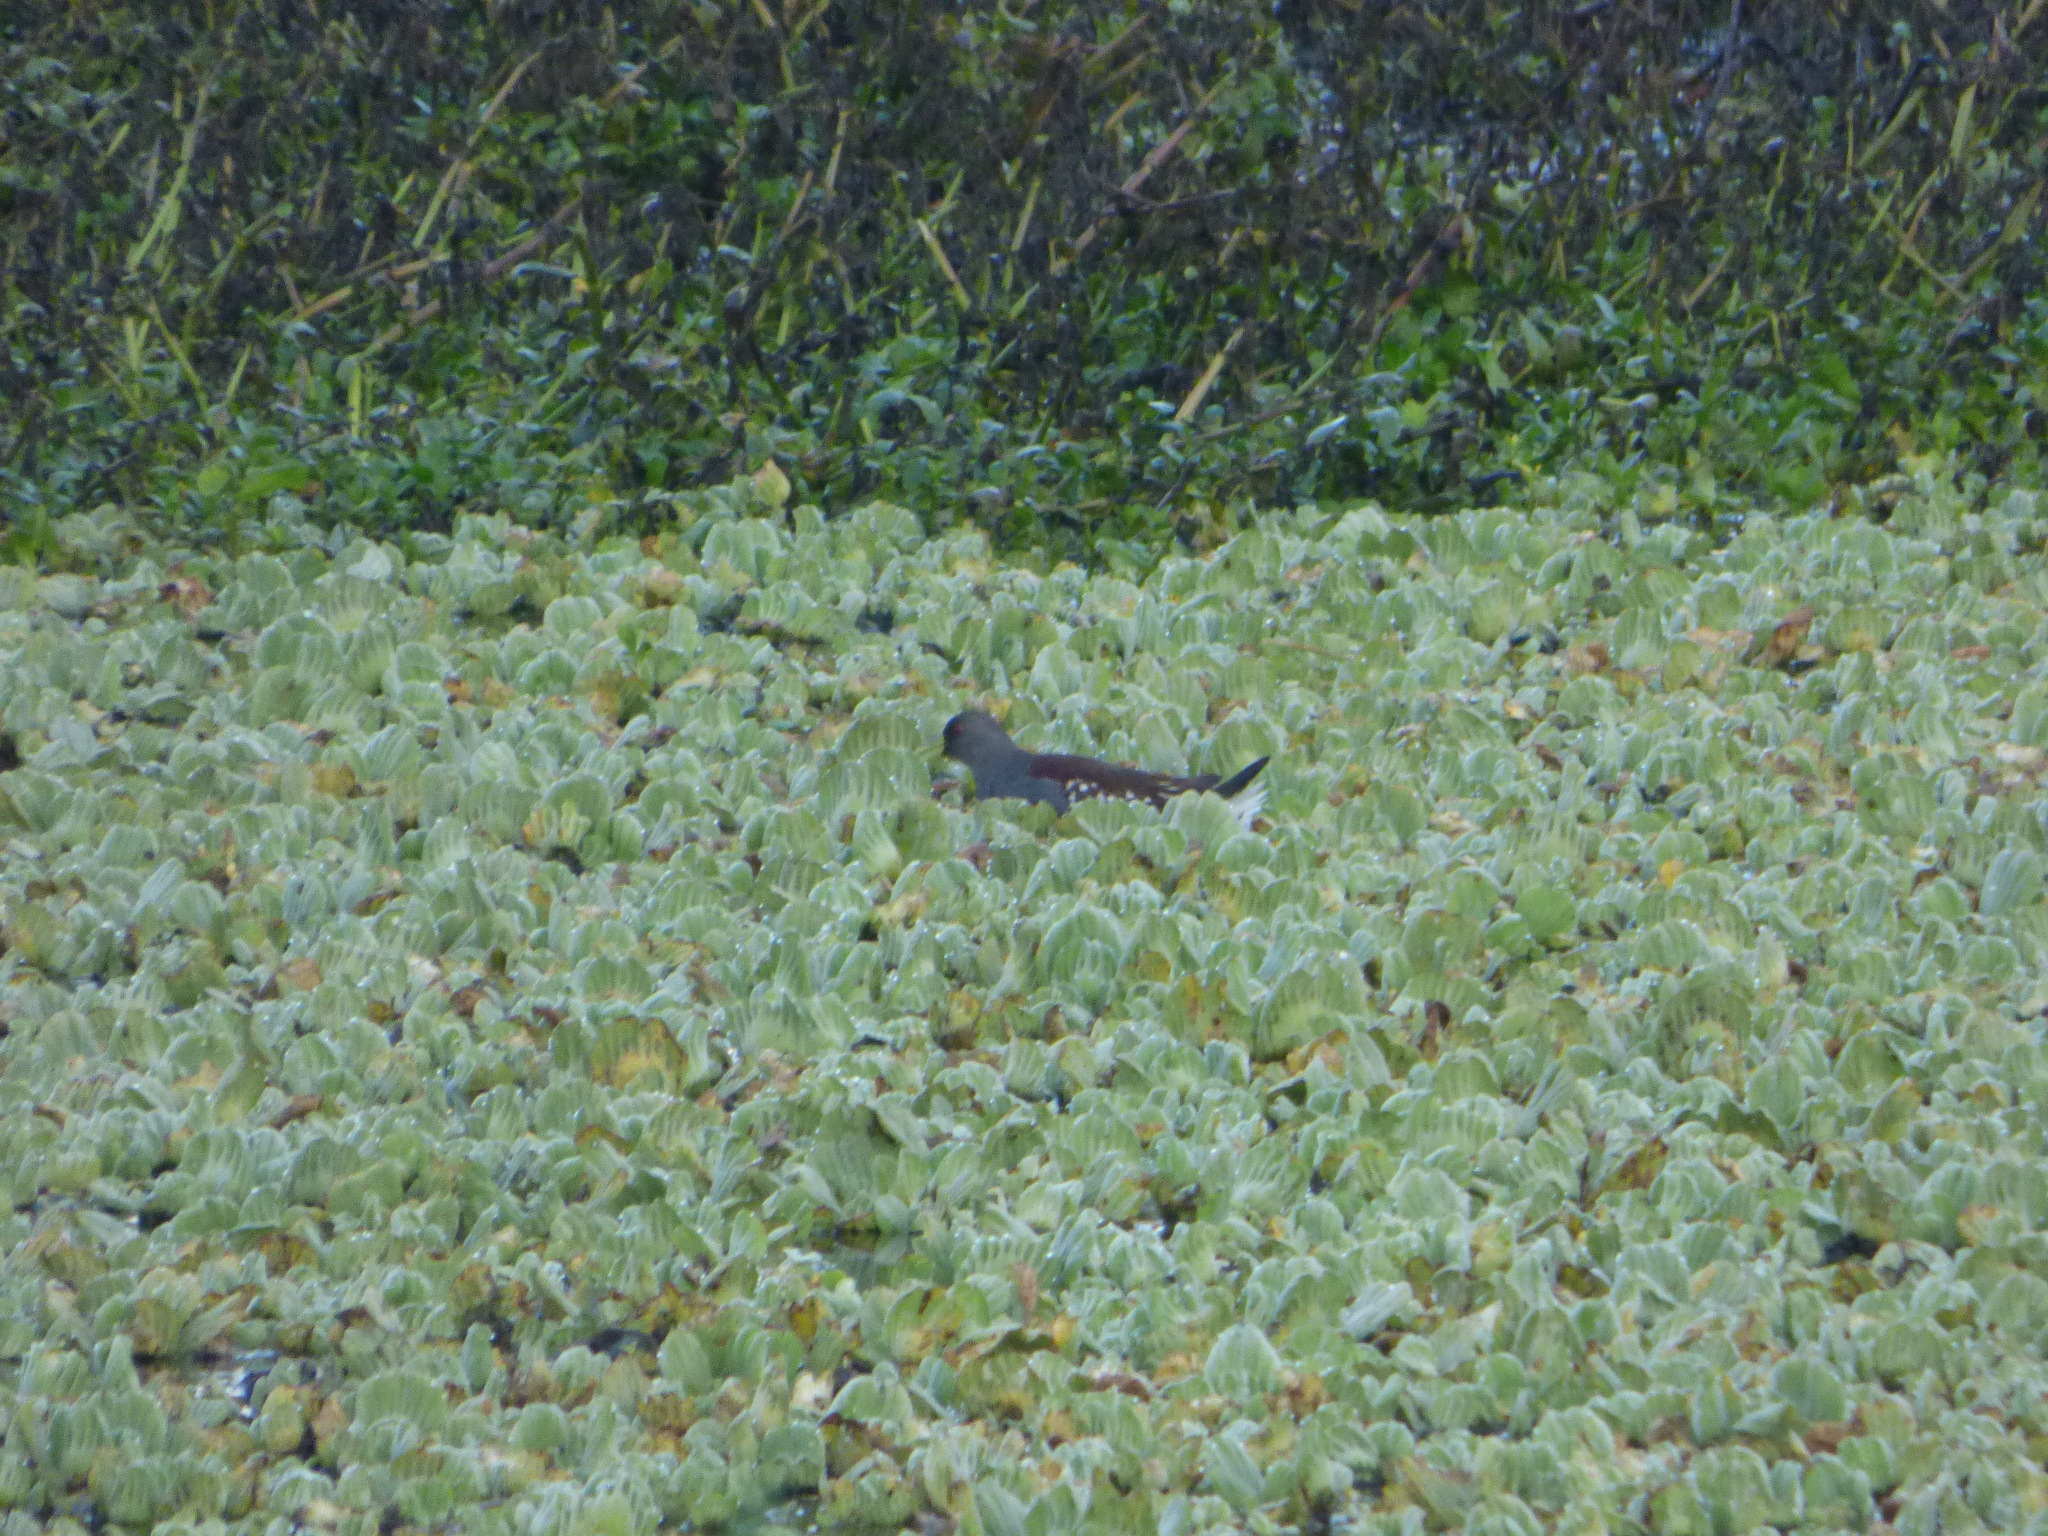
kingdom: Animalia
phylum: Chordata
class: Aves
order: Gruiformes
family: Rallidae
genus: Gallinula
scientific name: Gallinula melanops
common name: Spot-flanked gallinule
